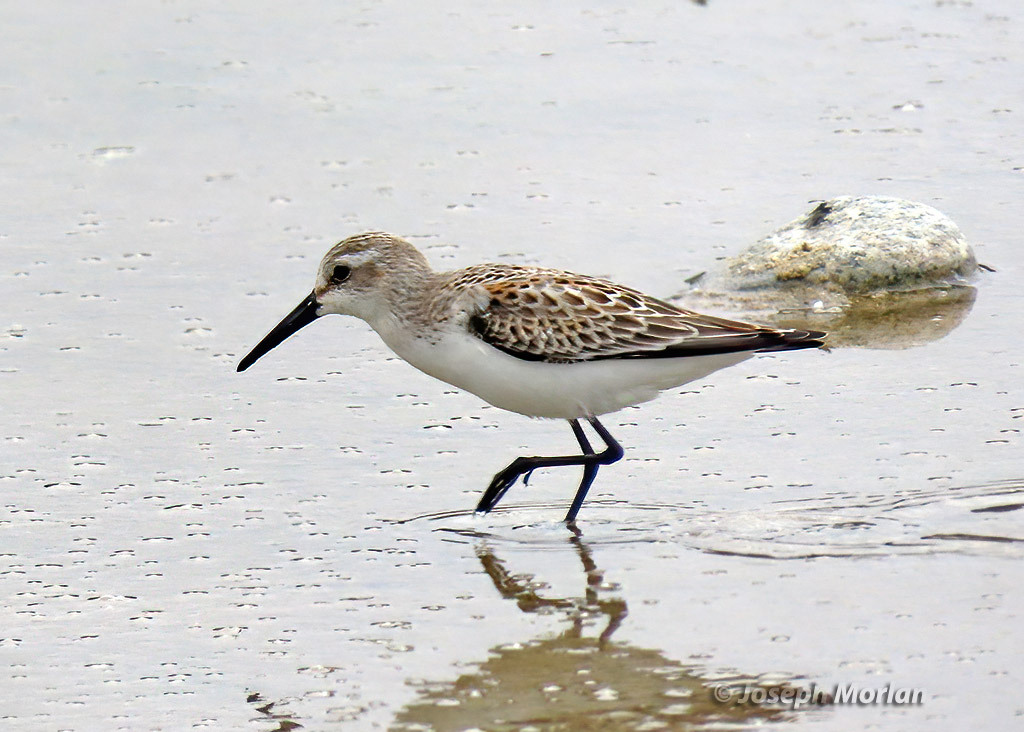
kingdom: Animalia
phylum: Chordata
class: Aves
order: Charadriiformes
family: Scolopacidae
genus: Calidris
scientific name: Calidris mauri
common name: Western sandpiper
